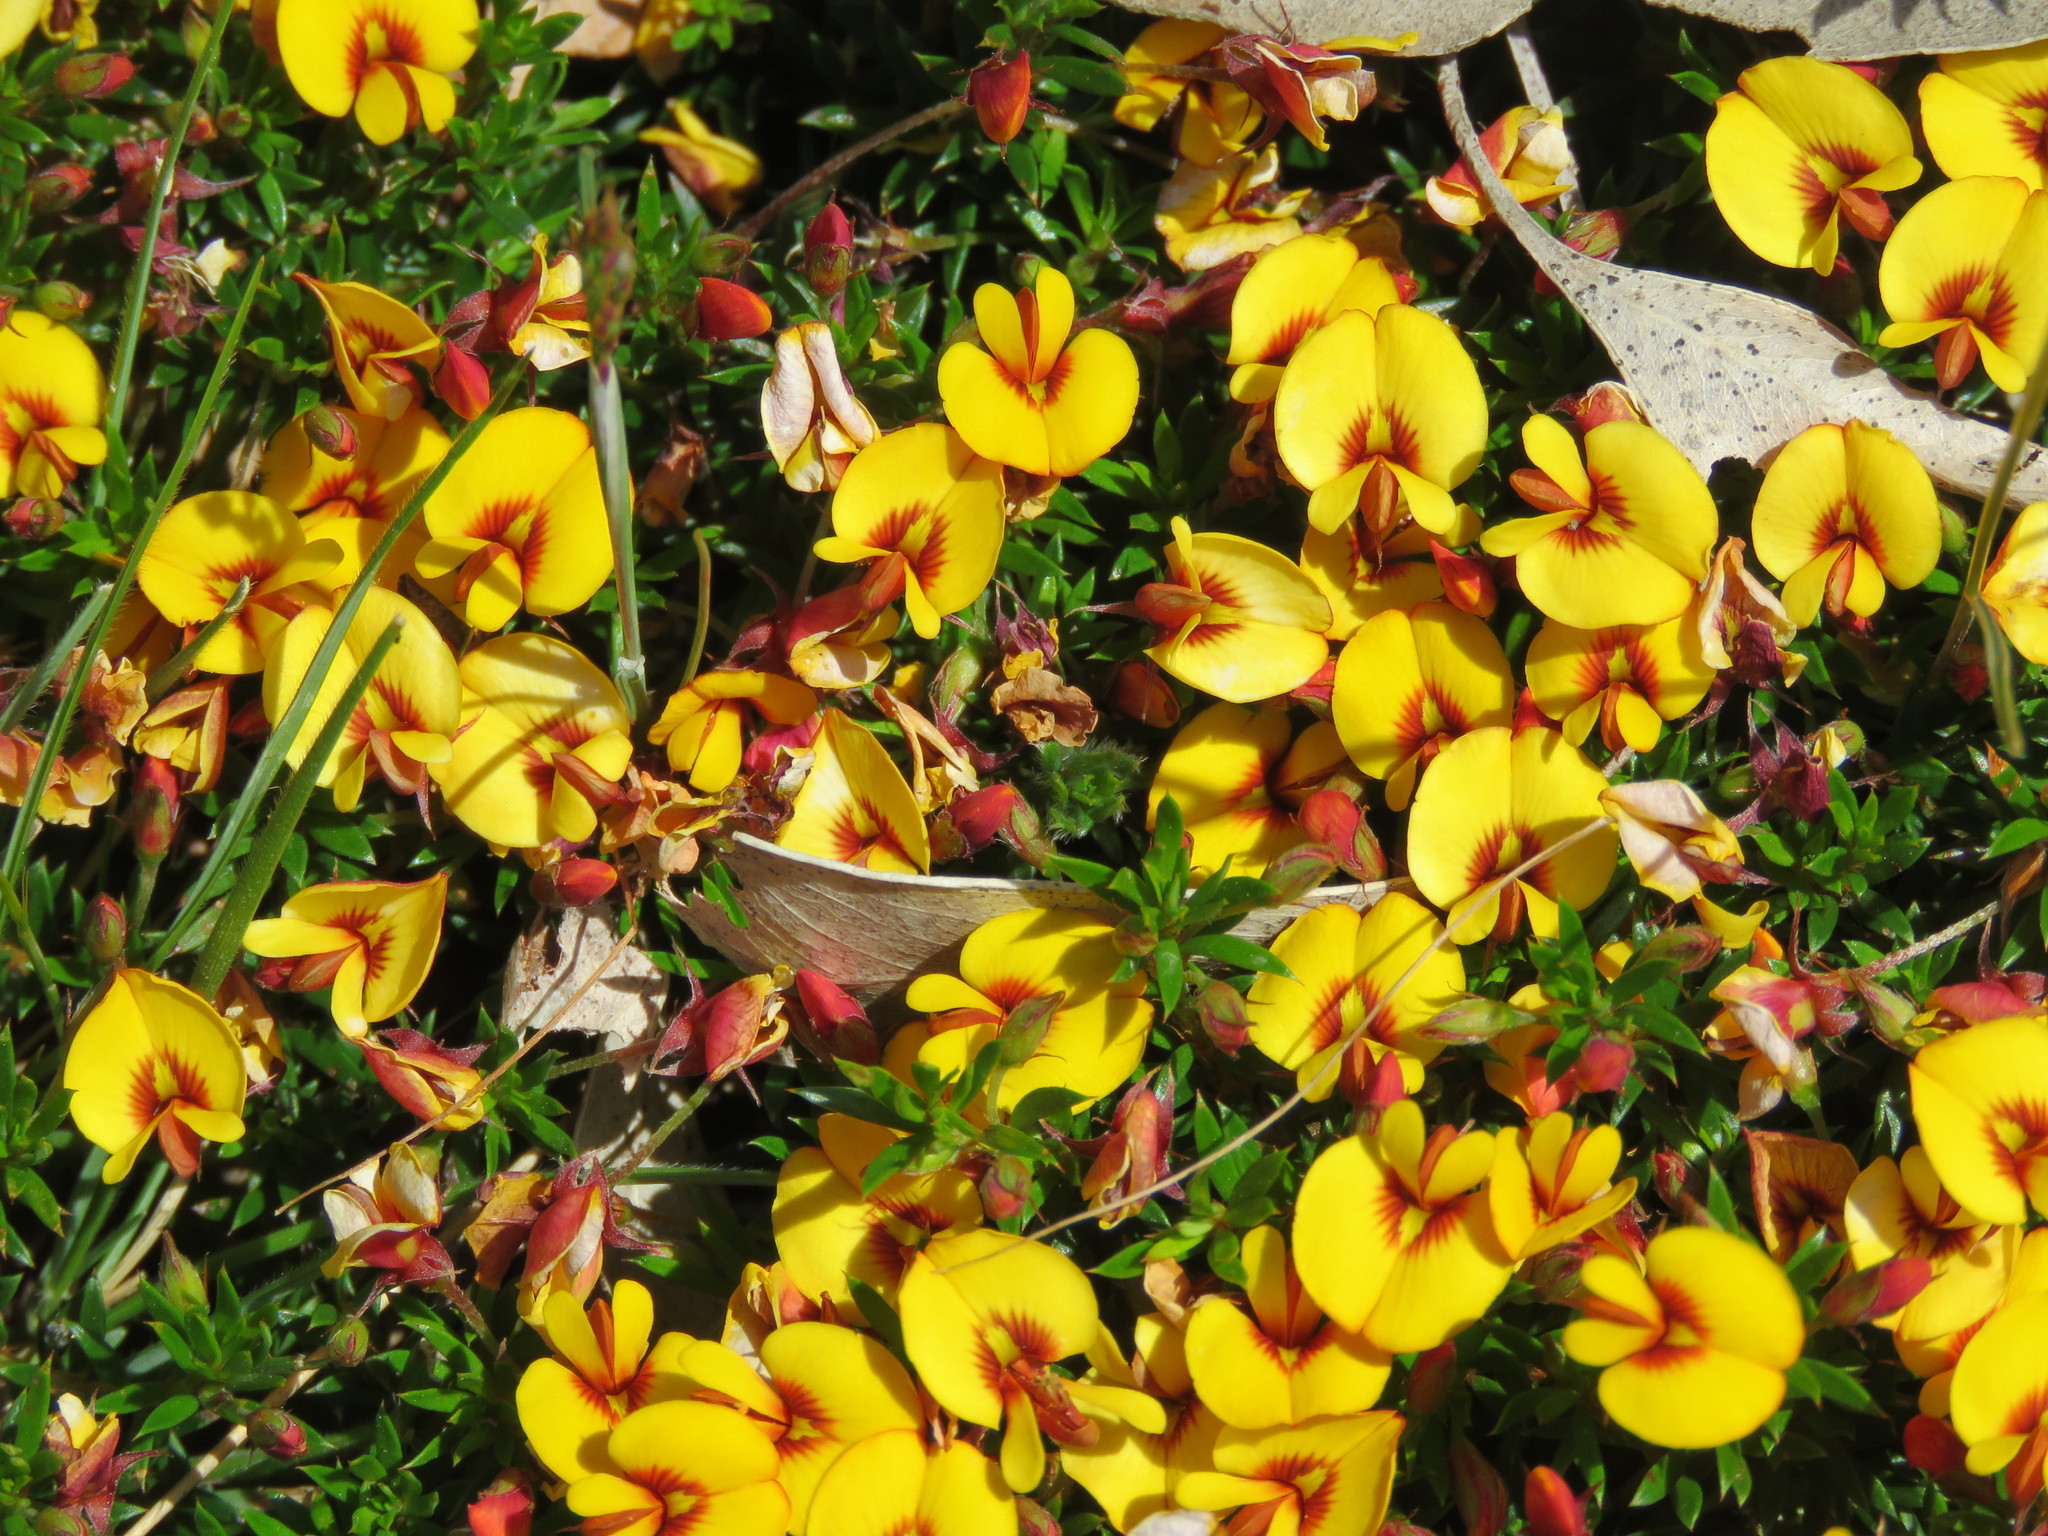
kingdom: Plantae
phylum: Tracheophyta
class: Magnoliopsida
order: Fabales
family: Fabaceae
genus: Pultenaea
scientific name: Pultenaea pedunculata
